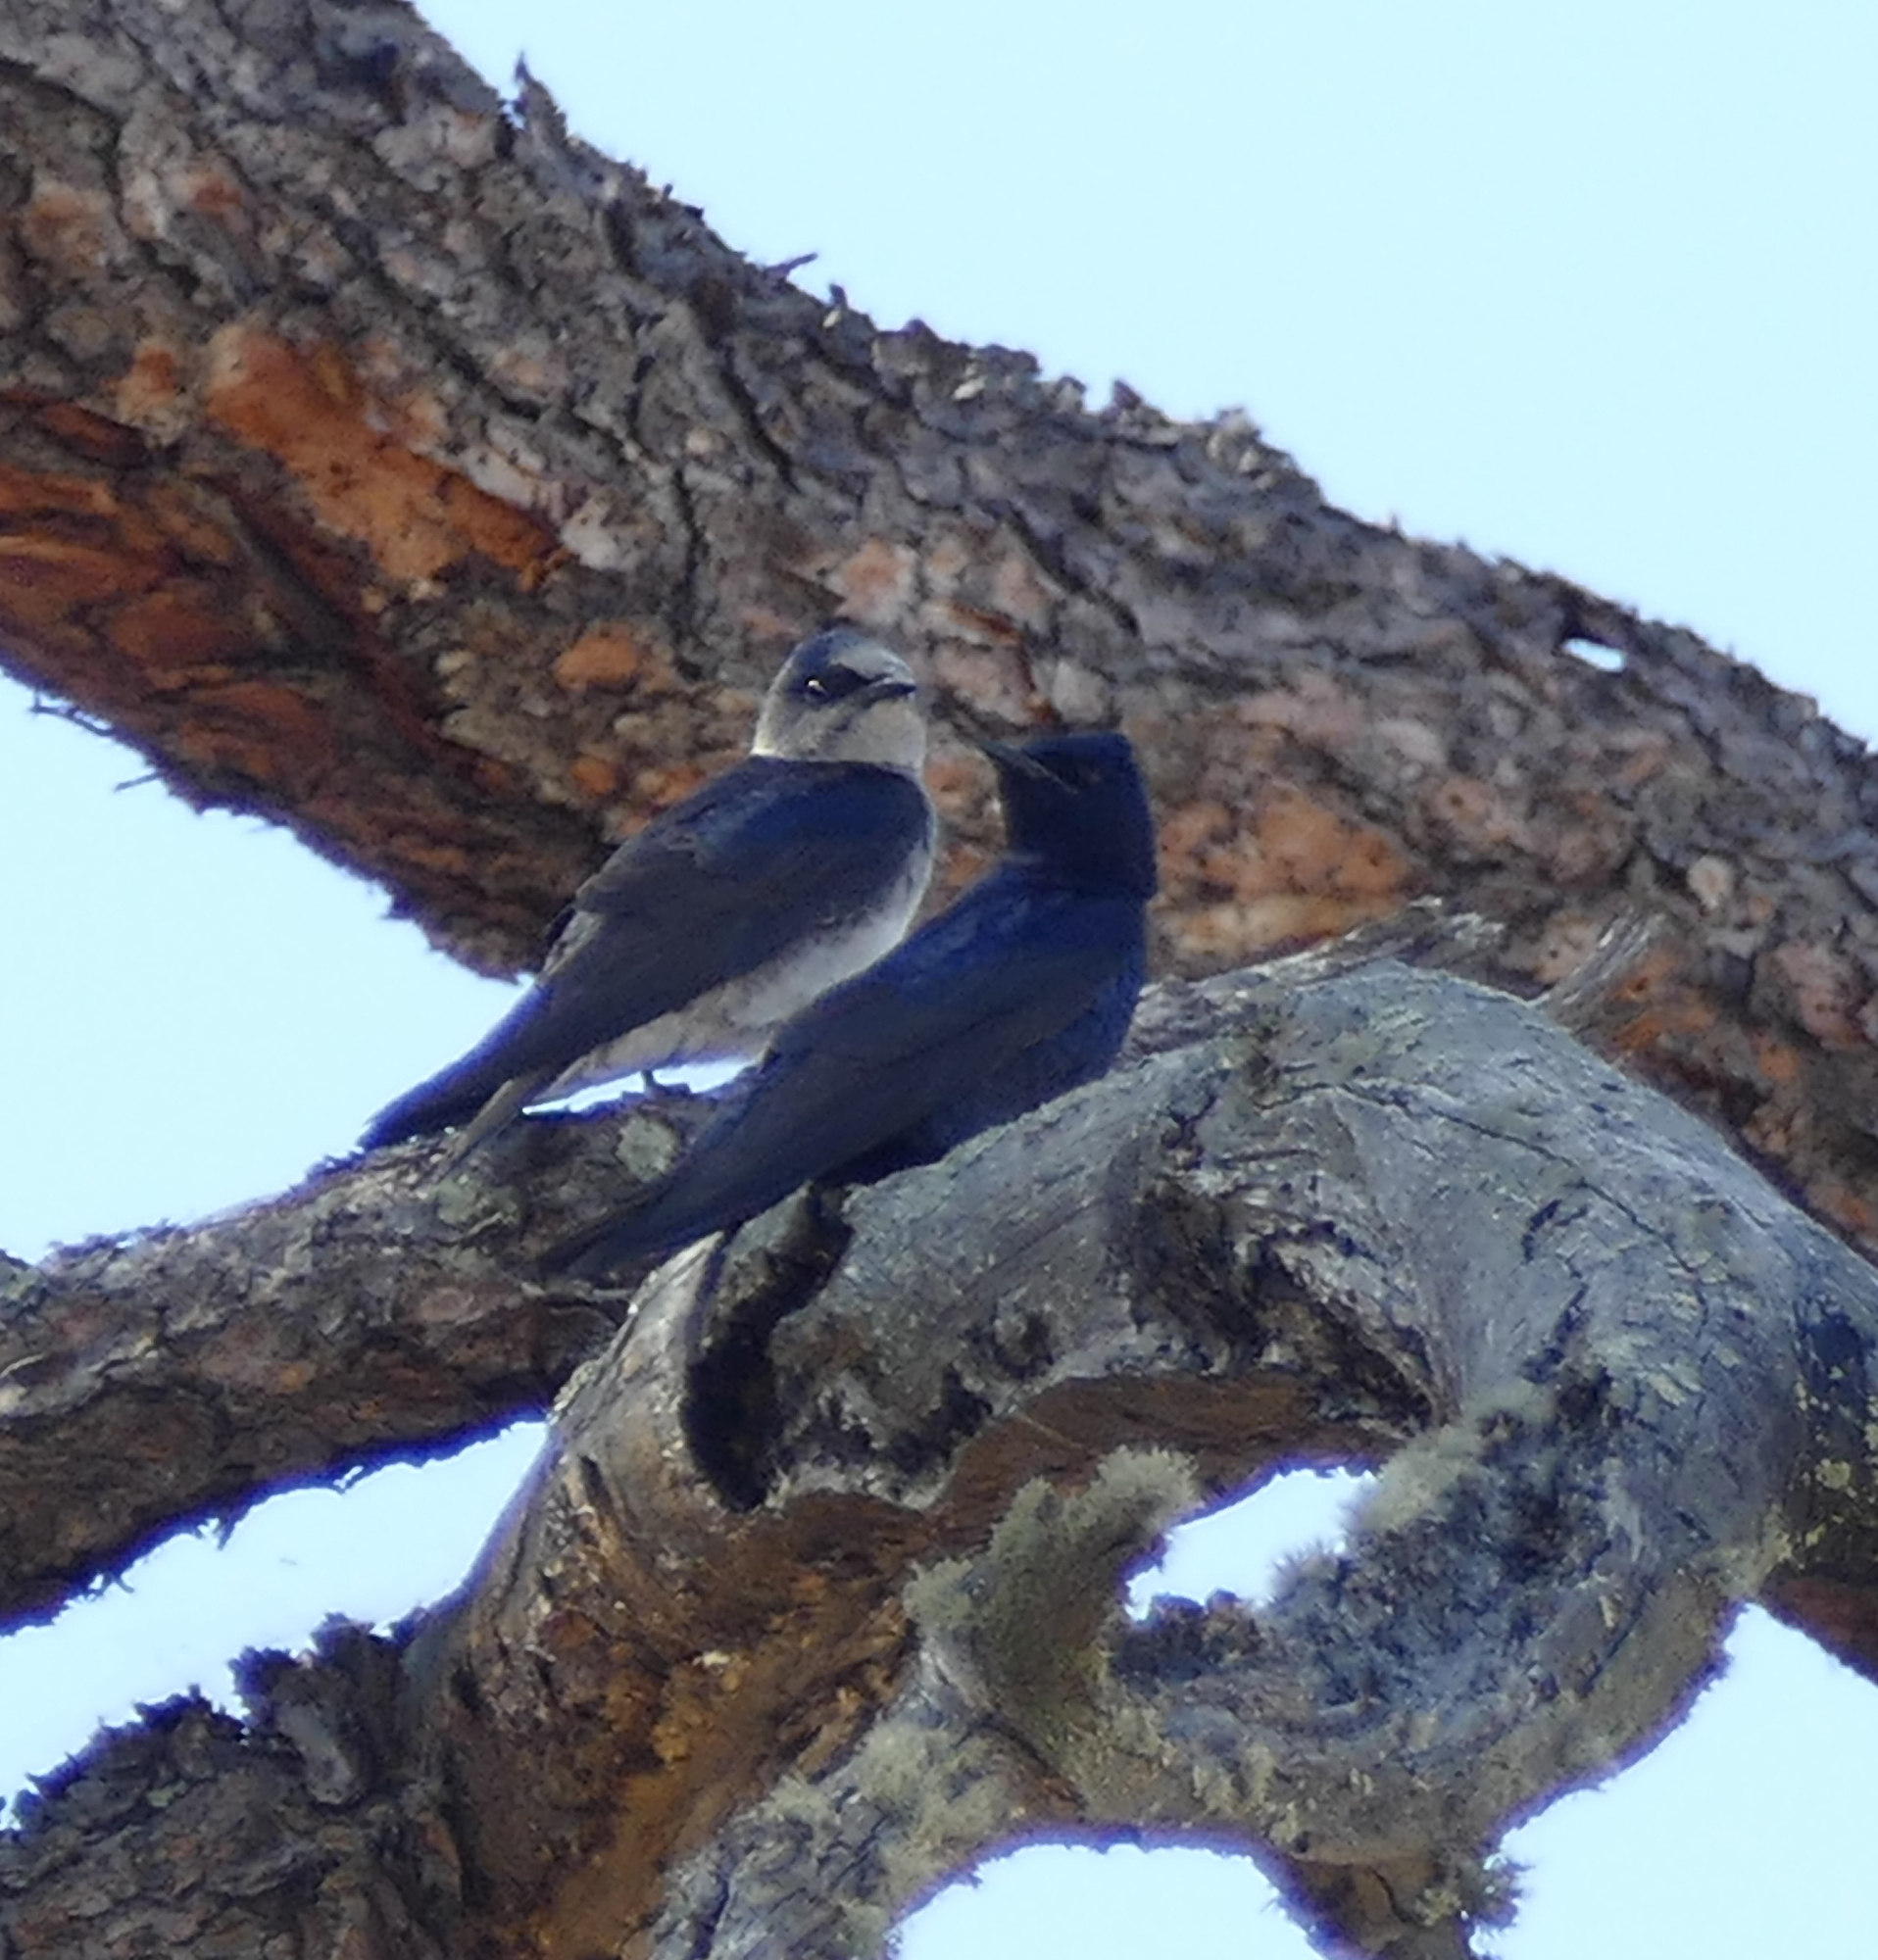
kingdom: Animalia
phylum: Chordata
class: Aves
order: Passeriformes
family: Hirundinidae
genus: Progne
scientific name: Progne subis
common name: Purple martin
